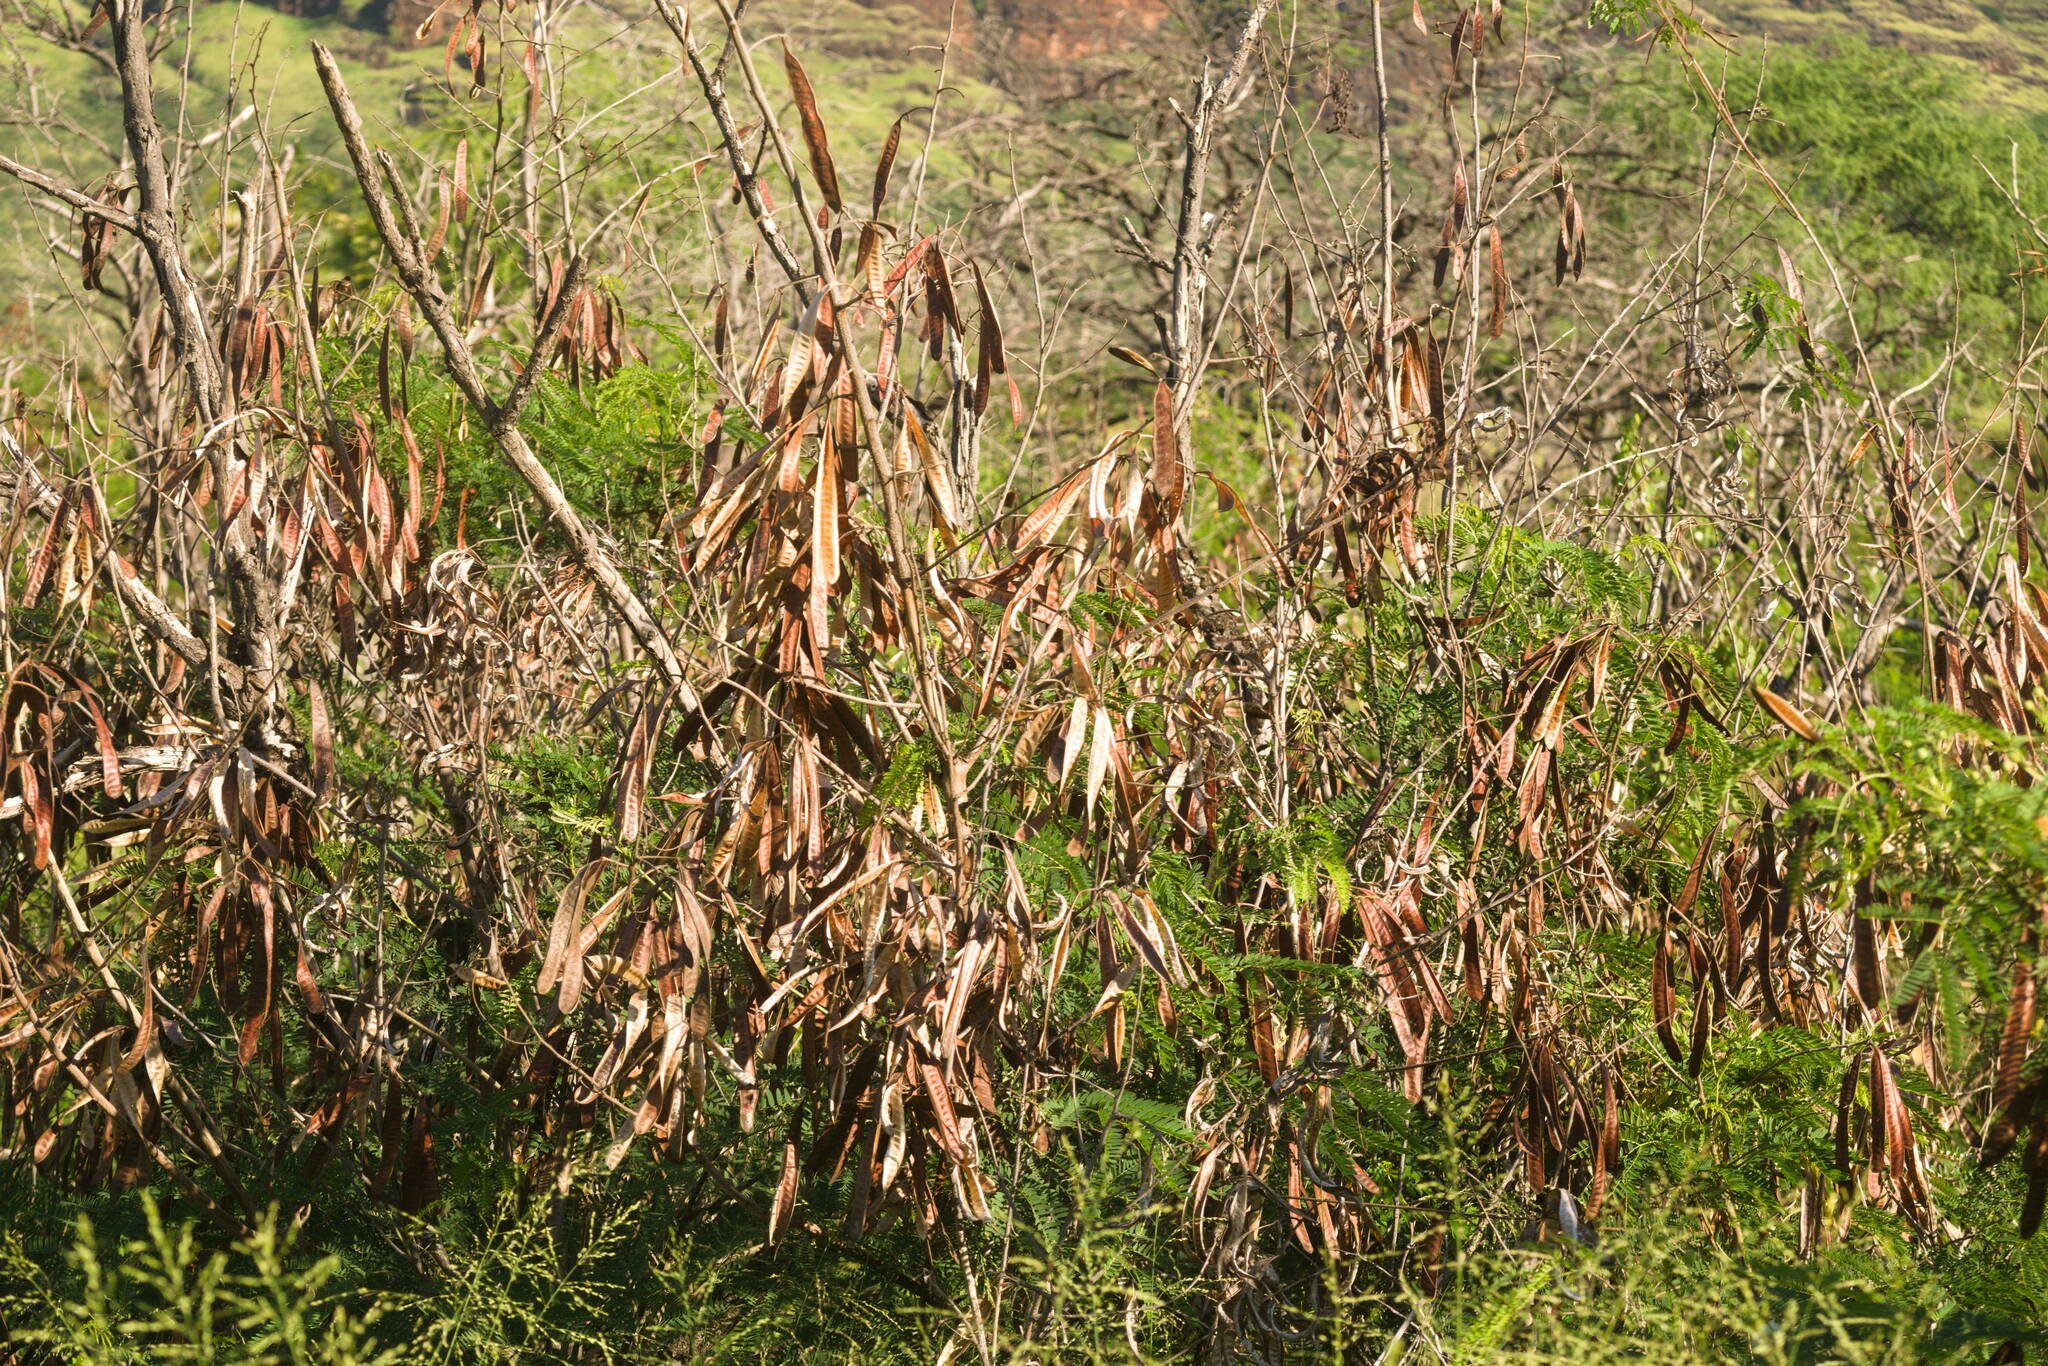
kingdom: Plantae
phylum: Tracheophyta
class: Magnoliopsida
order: Fabales
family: Fabaceae
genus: Leucaena
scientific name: Leucaena leucocephala
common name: White leadtree
